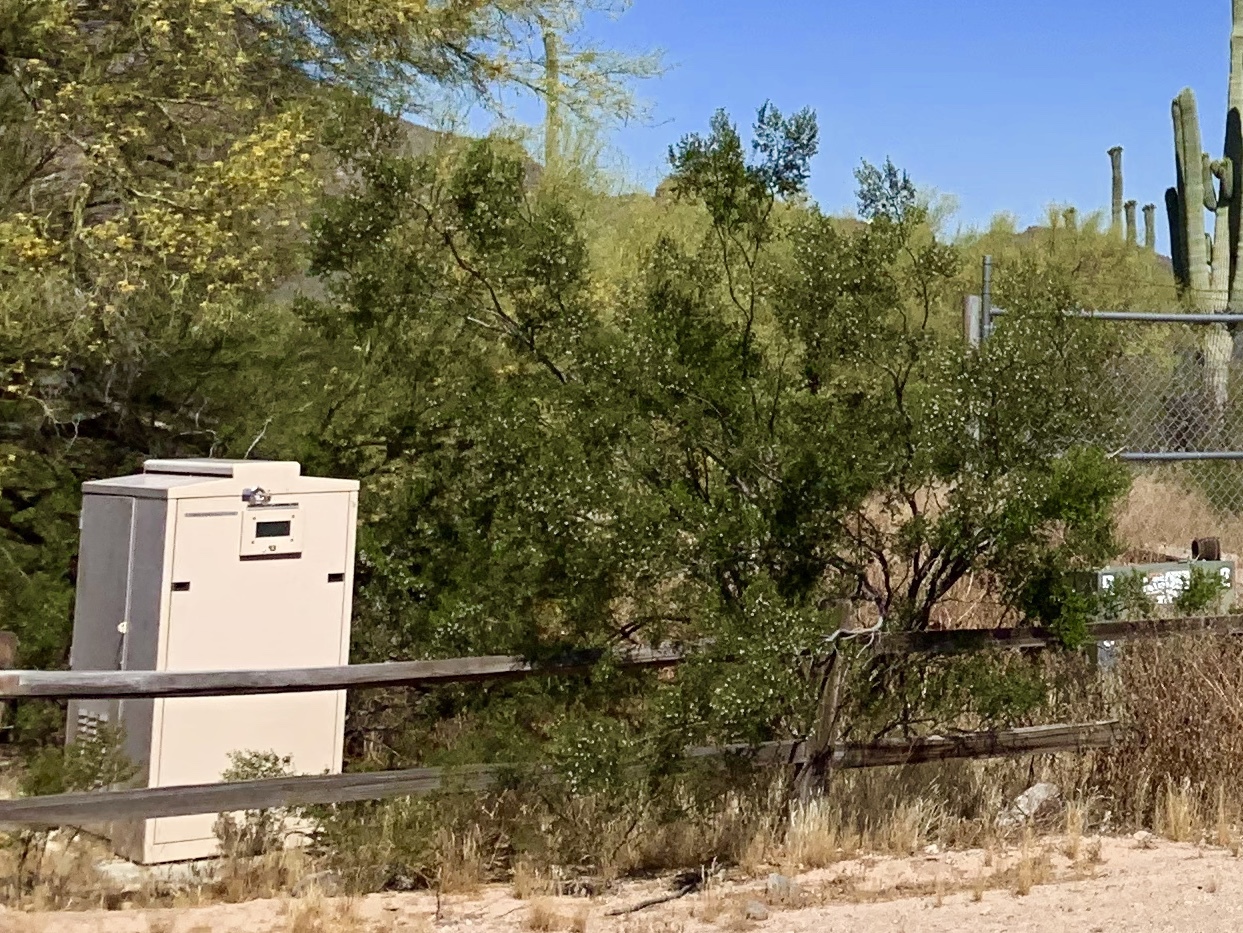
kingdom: Plantae
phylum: Tracheophyta
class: Magnoliopsida
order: Zygophyllales
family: Zygophyllaceae
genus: Larrea
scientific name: Larrea tridentata
